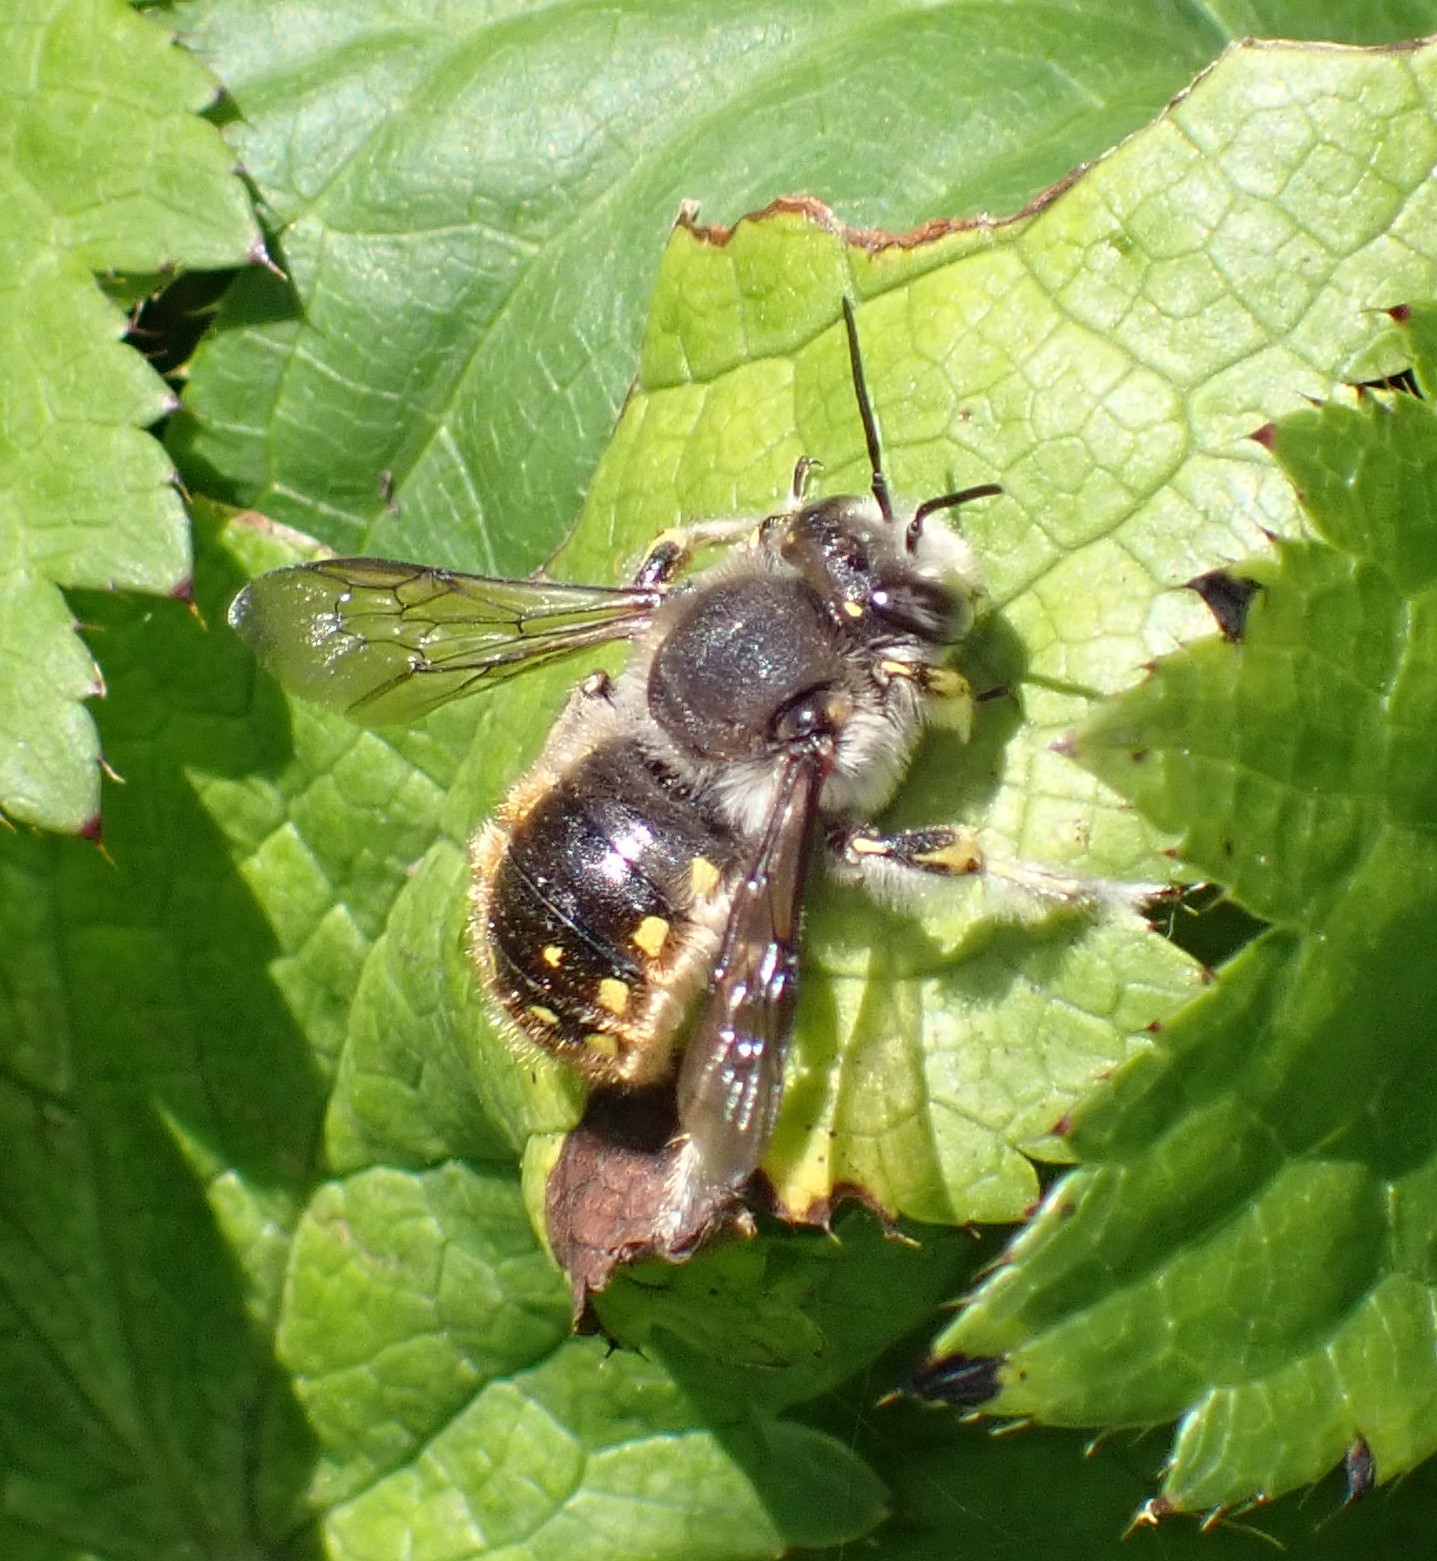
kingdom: Animalia
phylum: Arthropoda
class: Insecta
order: Hymenoptera
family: Megachilidae
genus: Anthidium
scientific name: Anthidium manicatum
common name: Wool carder bee
